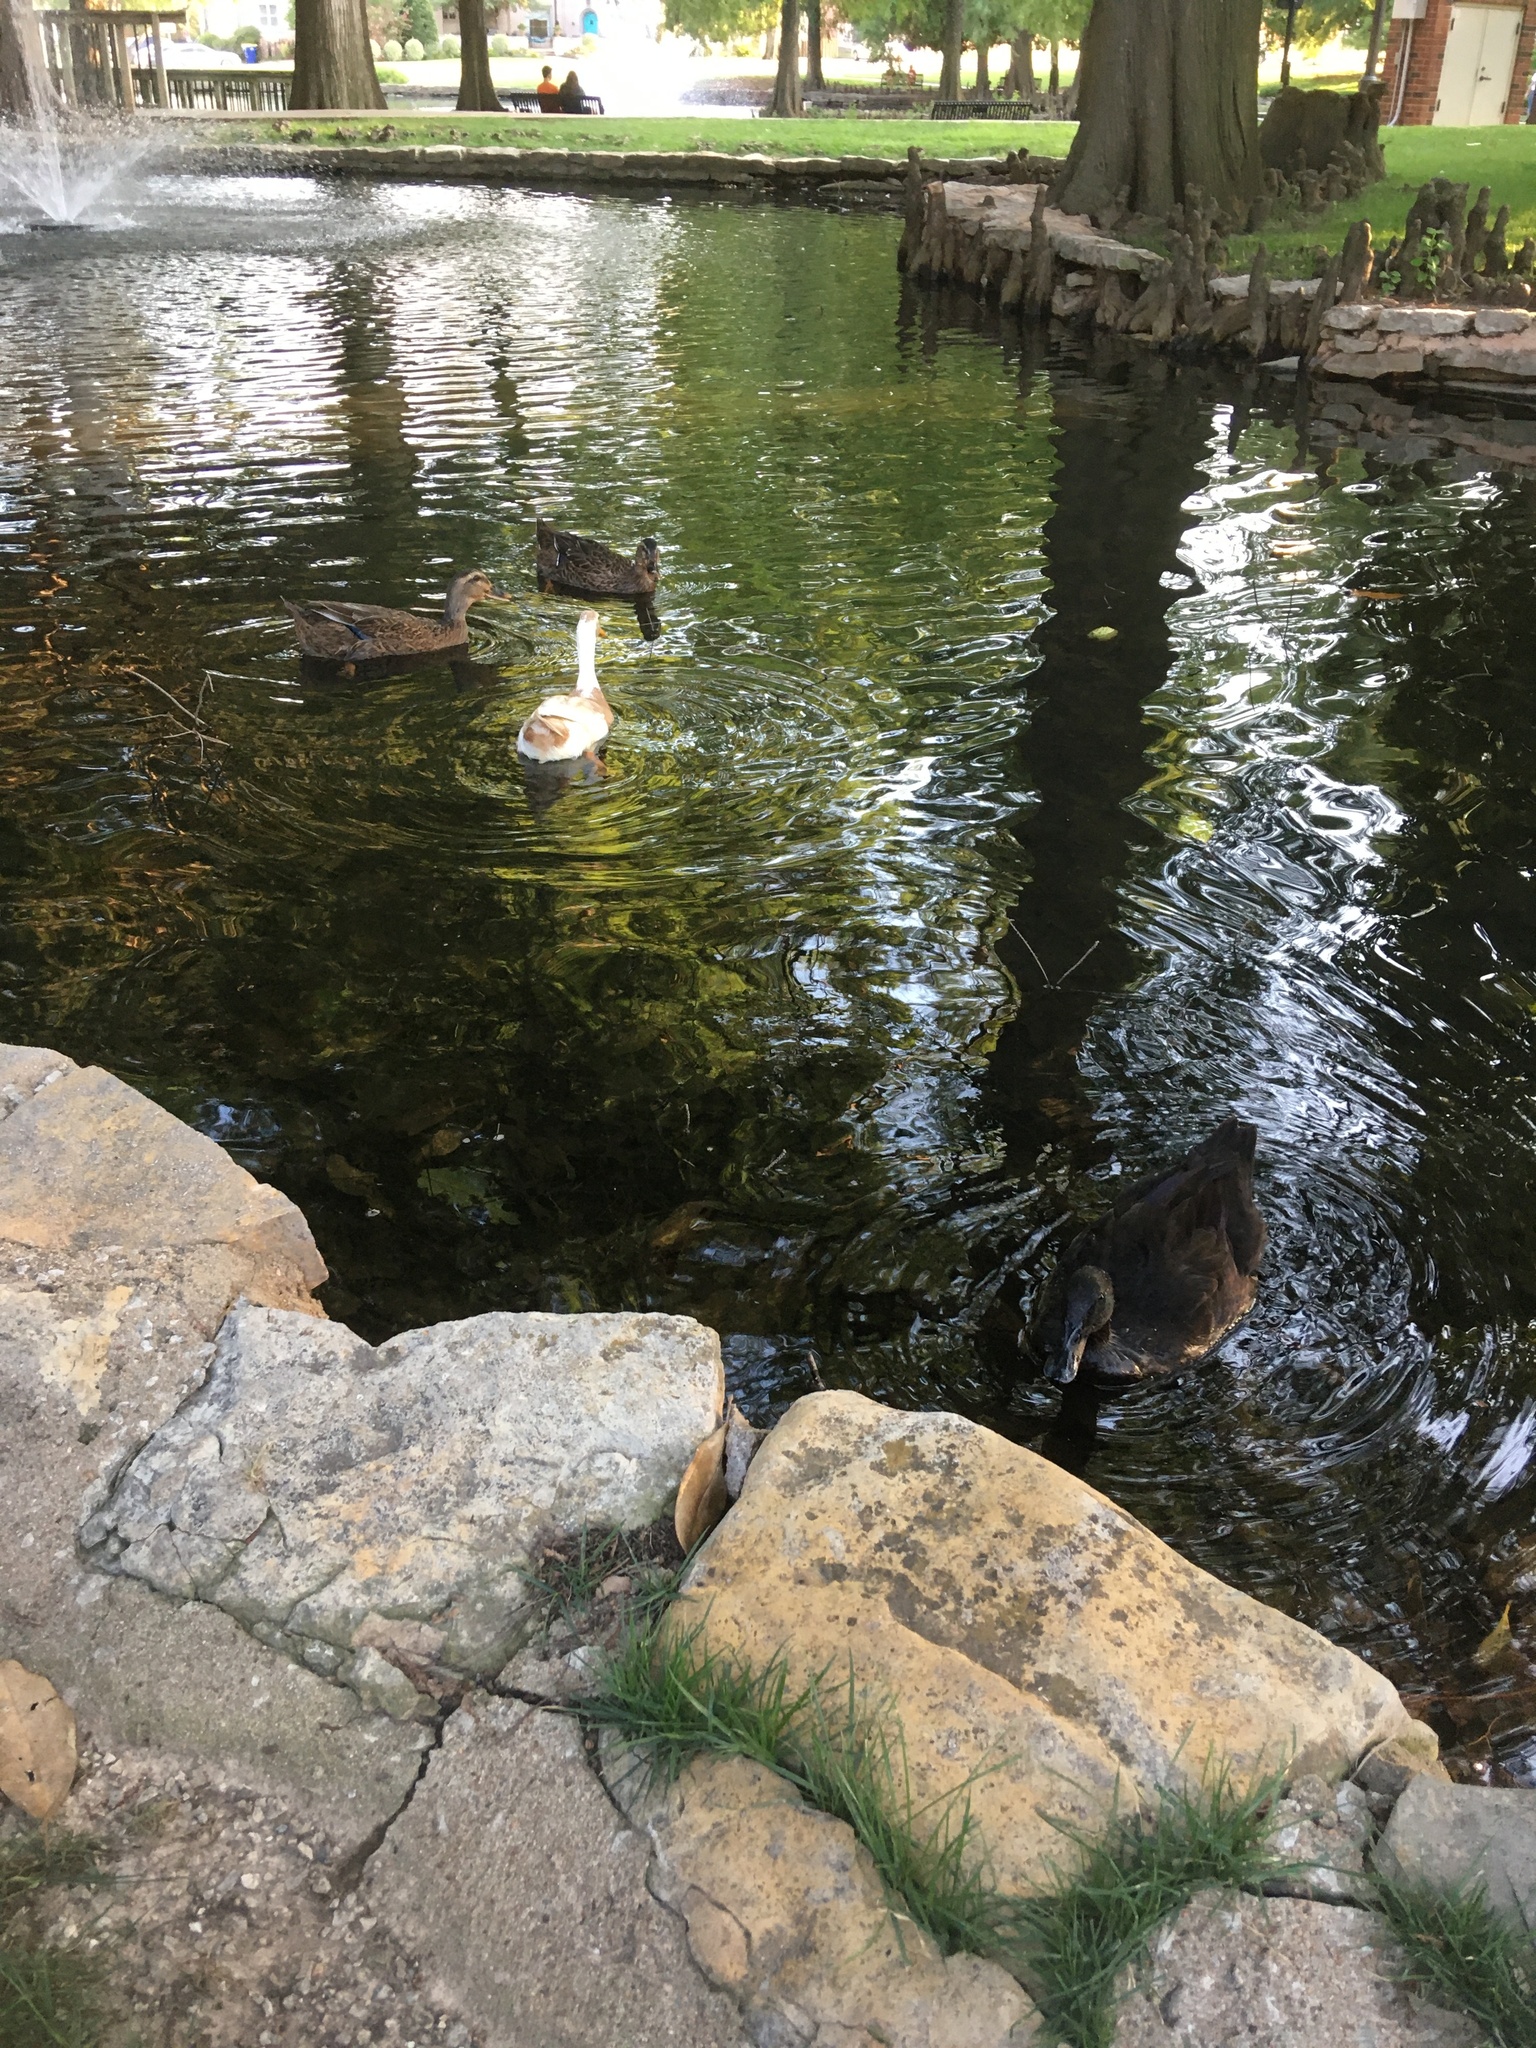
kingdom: Animalia
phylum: Chordata
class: Aves
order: Anseriformes
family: Anatidae
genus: Anas
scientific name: Anas platyrhynchos
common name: Mallard
